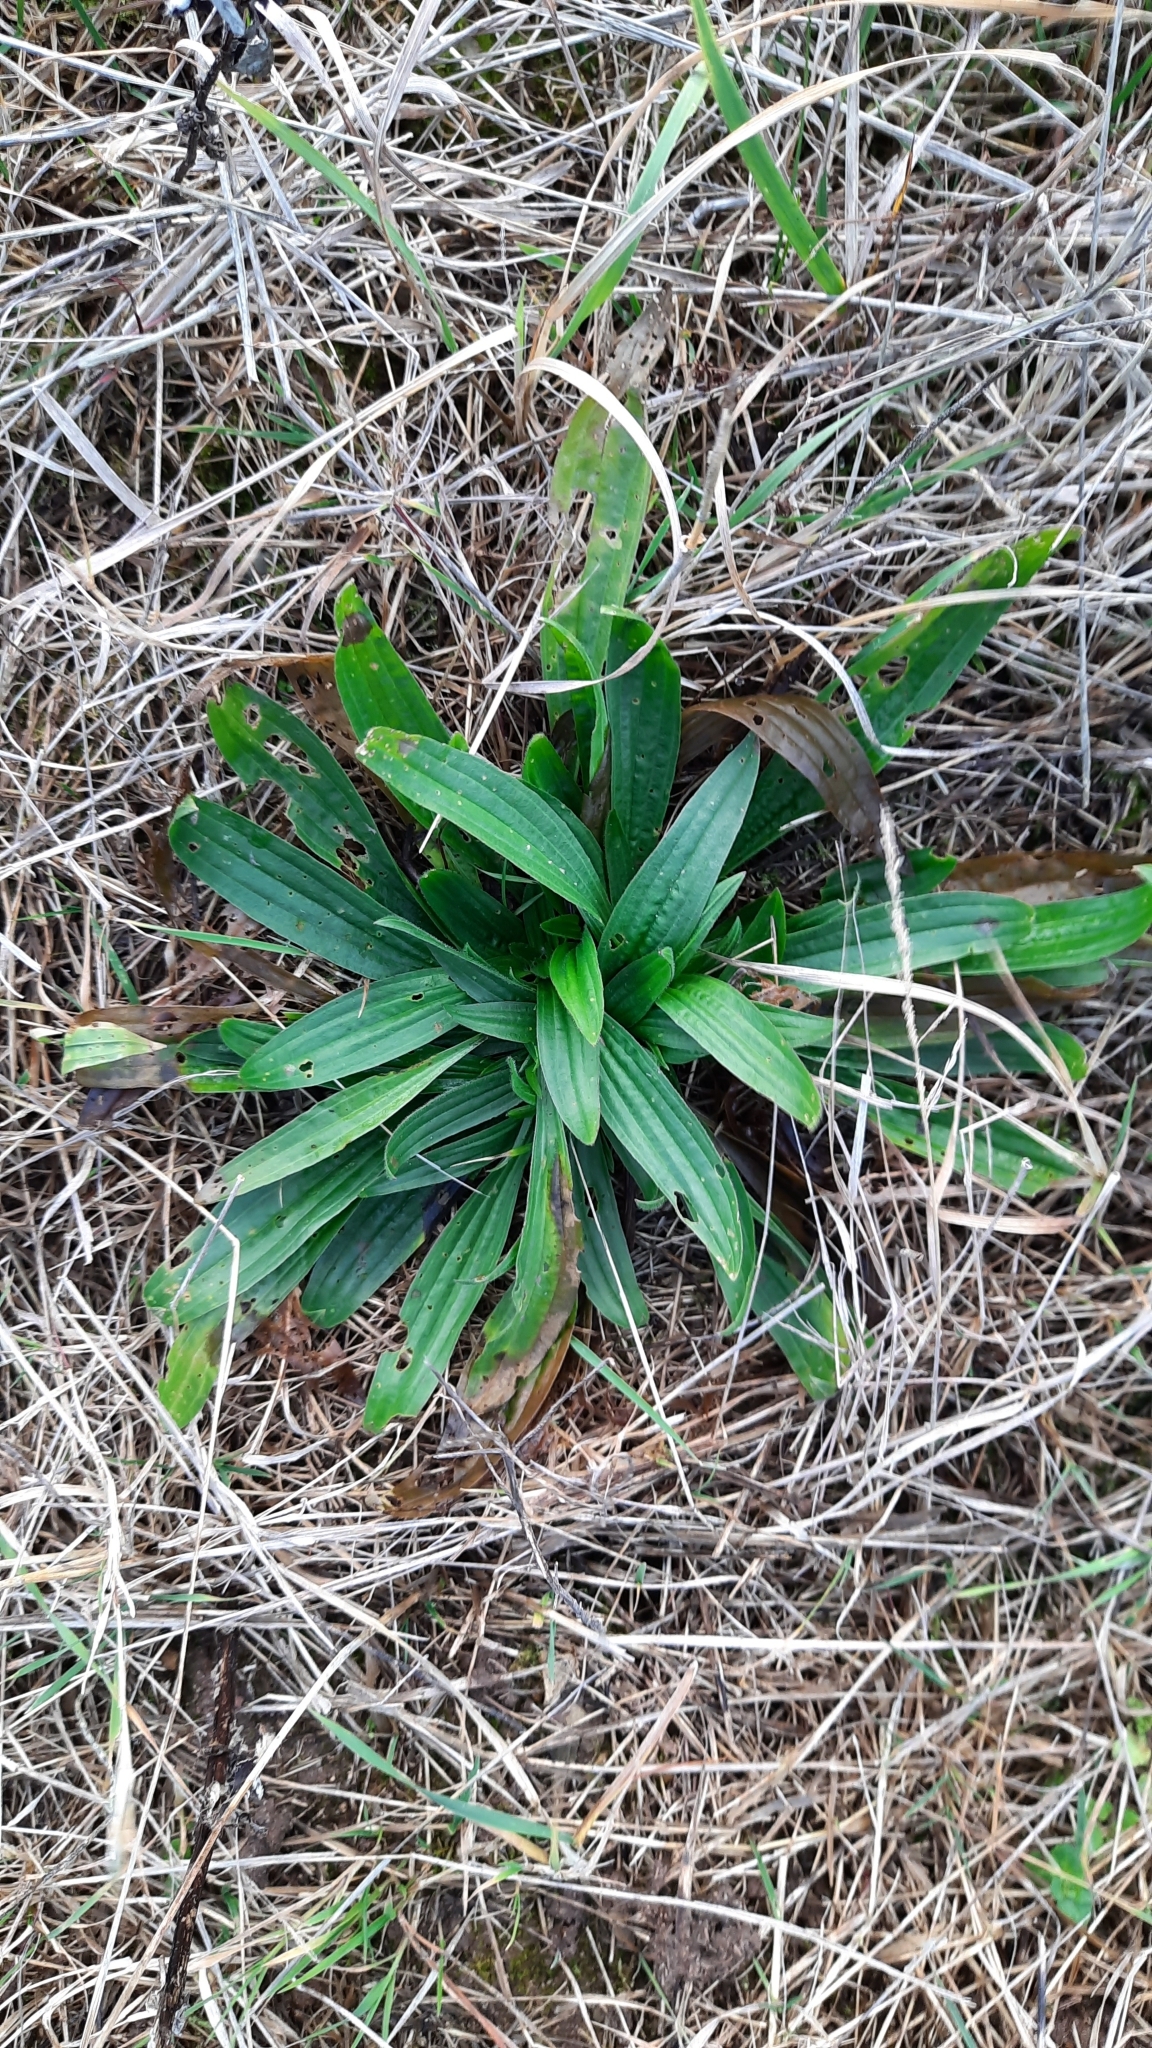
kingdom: Plantae
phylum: Tracheophyta
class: Magnoliopsida
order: Lamiales
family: Plantaginaceae
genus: Plantago
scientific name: Plantago lanceolata
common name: Ribwort plantain
